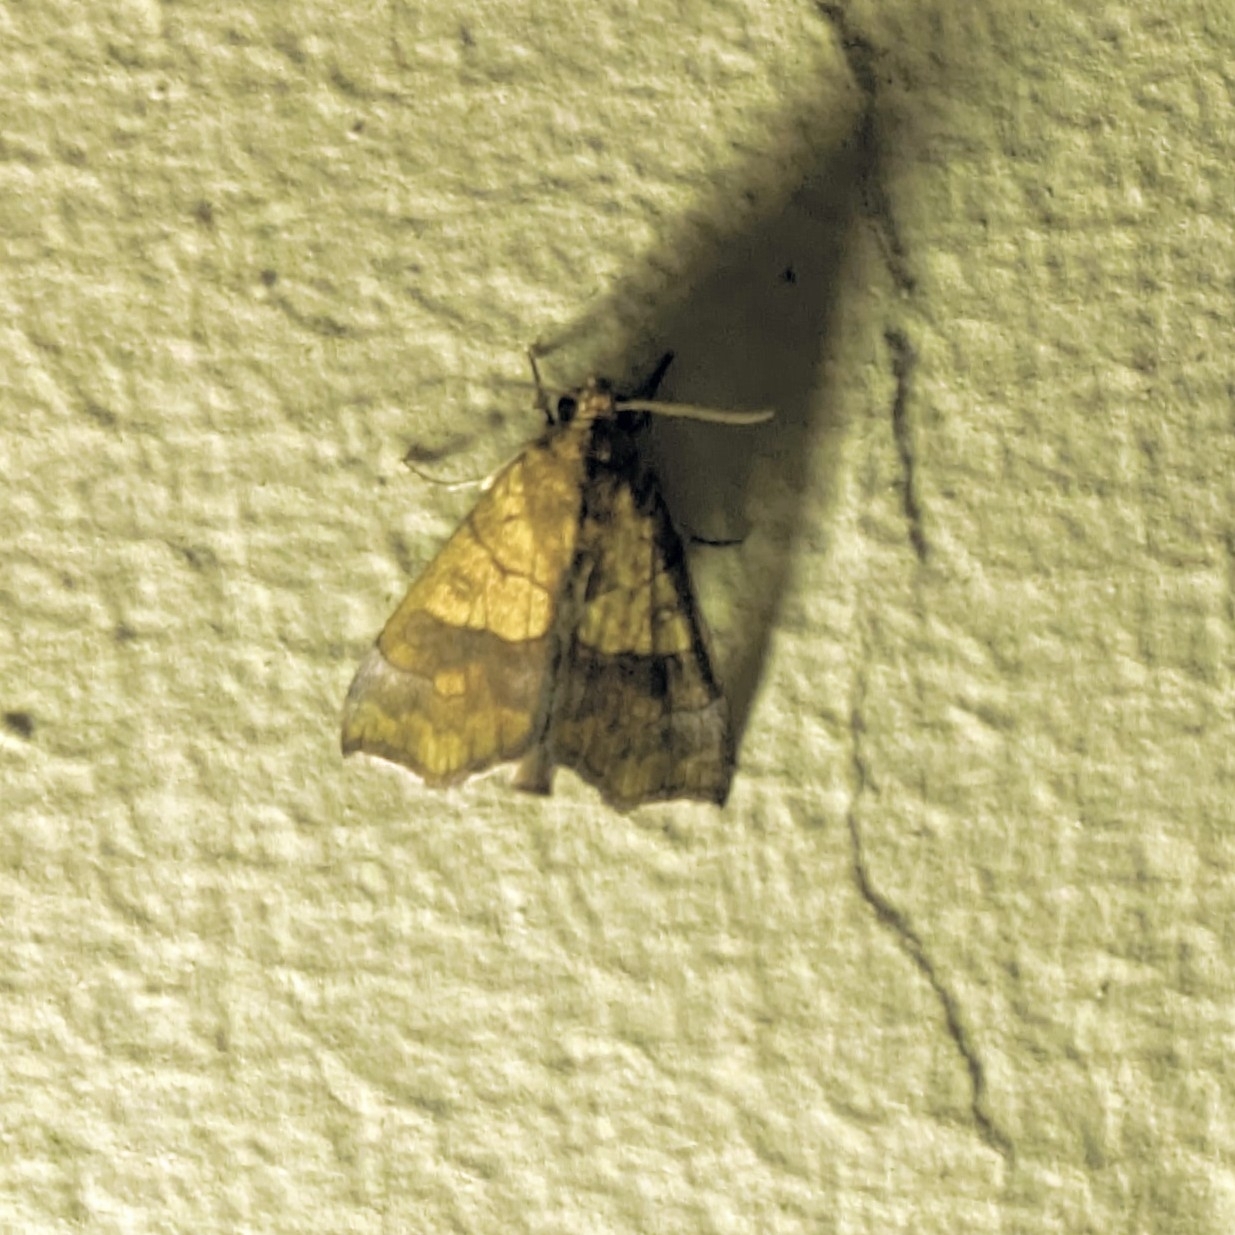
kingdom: Animalia
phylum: Arthropoda
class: Insecta
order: Lepidoptera
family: Erebidae
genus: Anomis
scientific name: Anomis flava
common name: Moth
